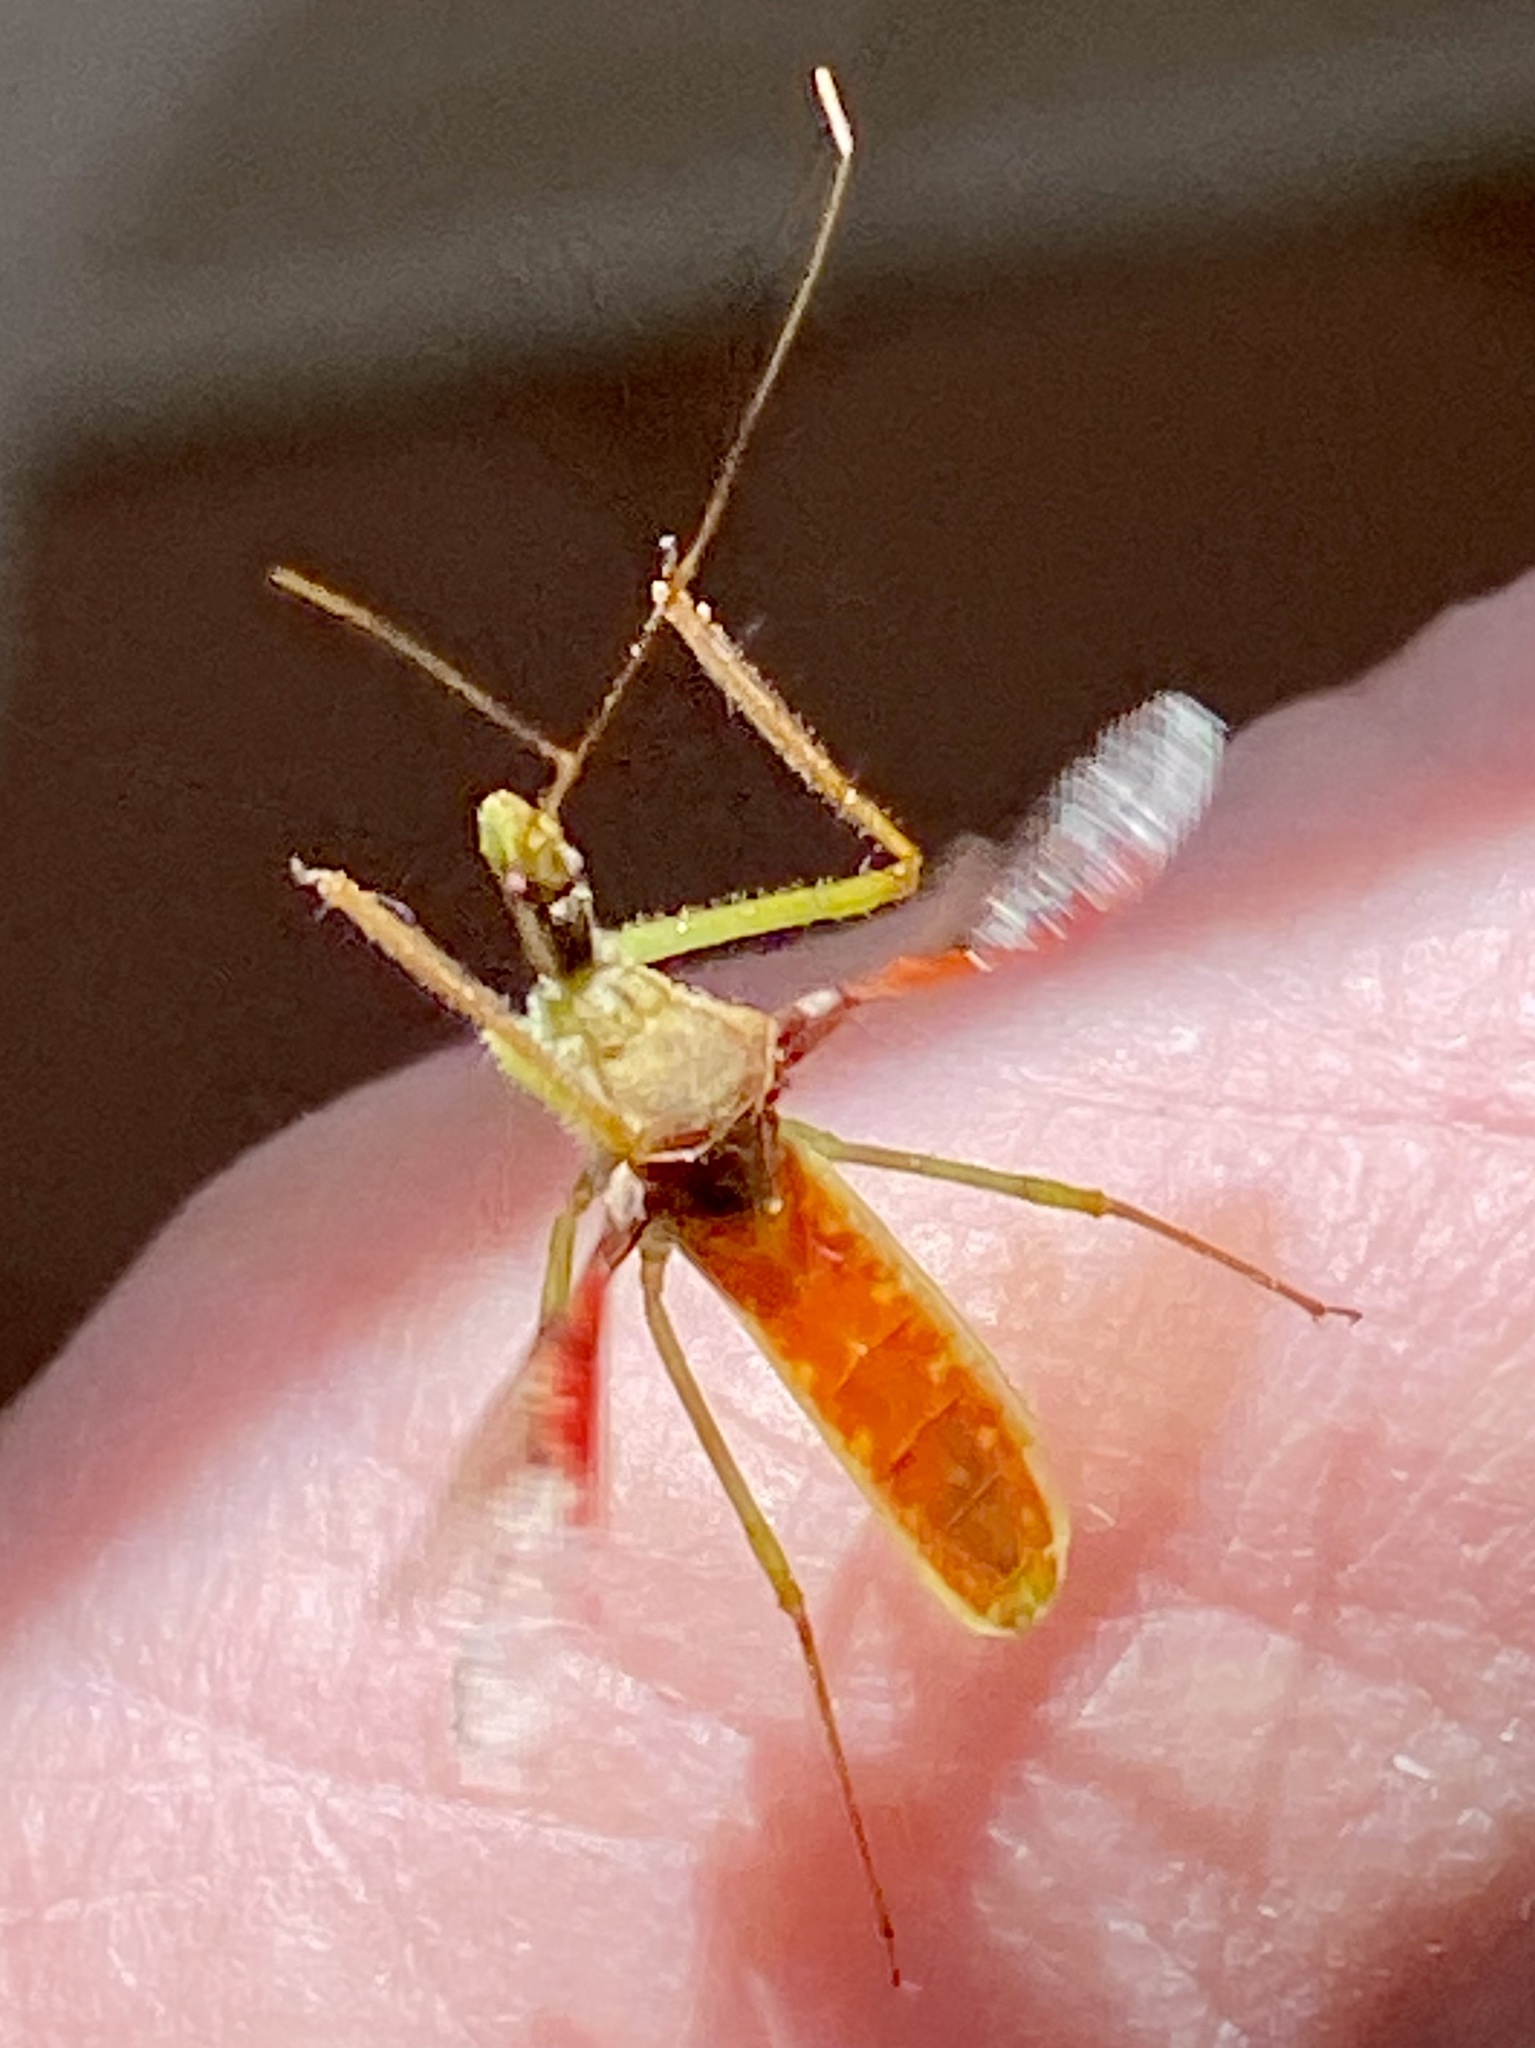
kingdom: Animalia
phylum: Arthropoda
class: Insecta
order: Hemiptera
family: Reduviidae
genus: Zelus
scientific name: Zelus renardii
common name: Assassin bug
